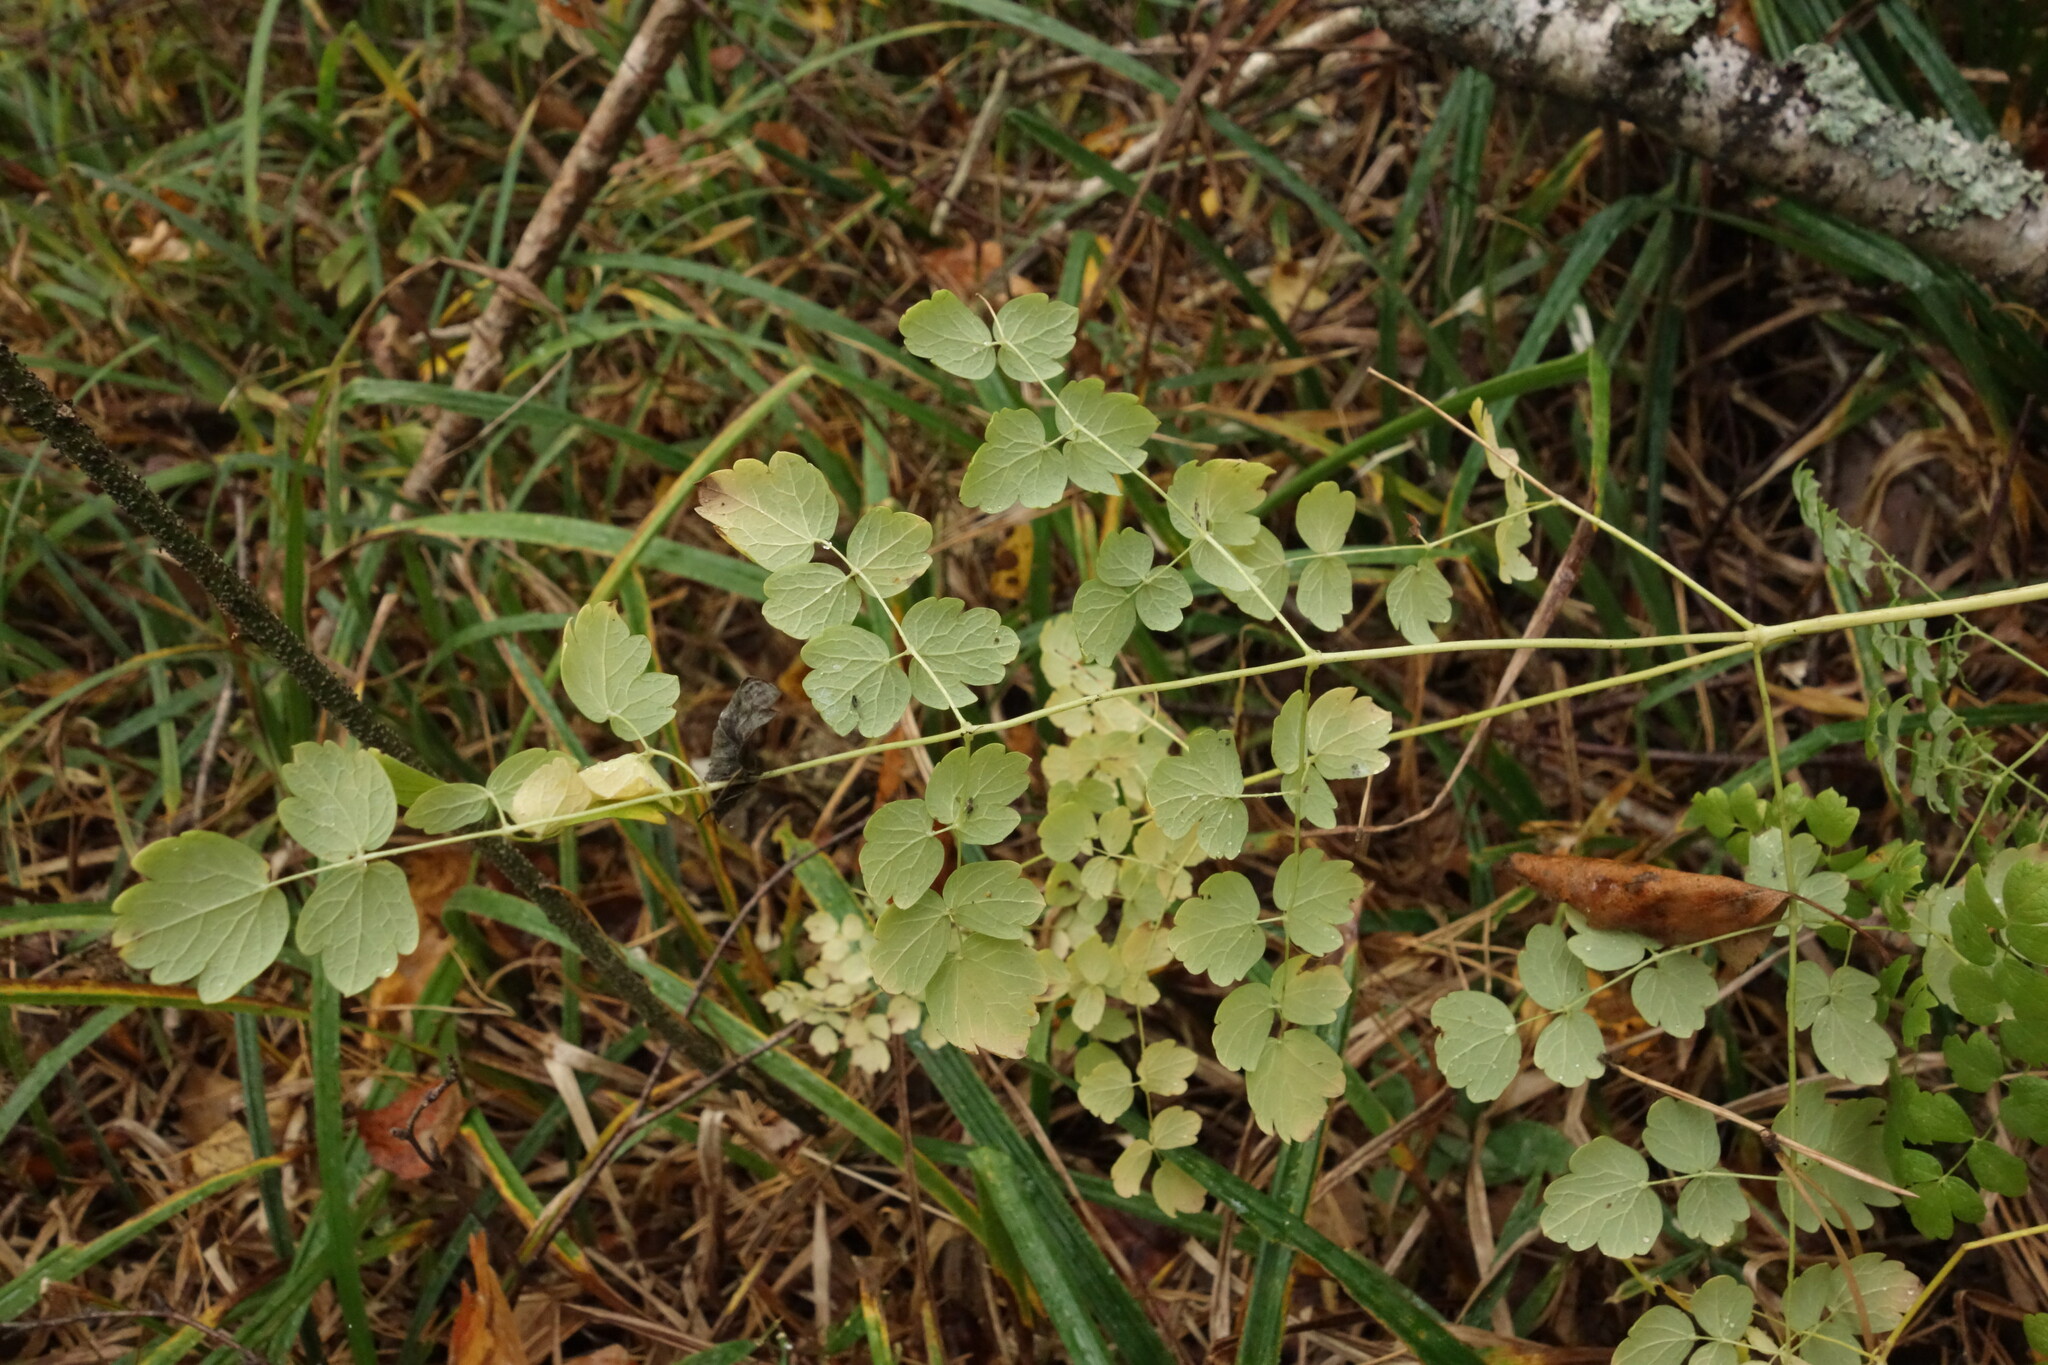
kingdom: Plantae
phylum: Tracheophyta
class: Magnoliopsida
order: Ranunculales
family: Ranunculaceae
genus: Thalictrum
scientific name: Thalictrum minus
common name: Lesser meadow-rue
